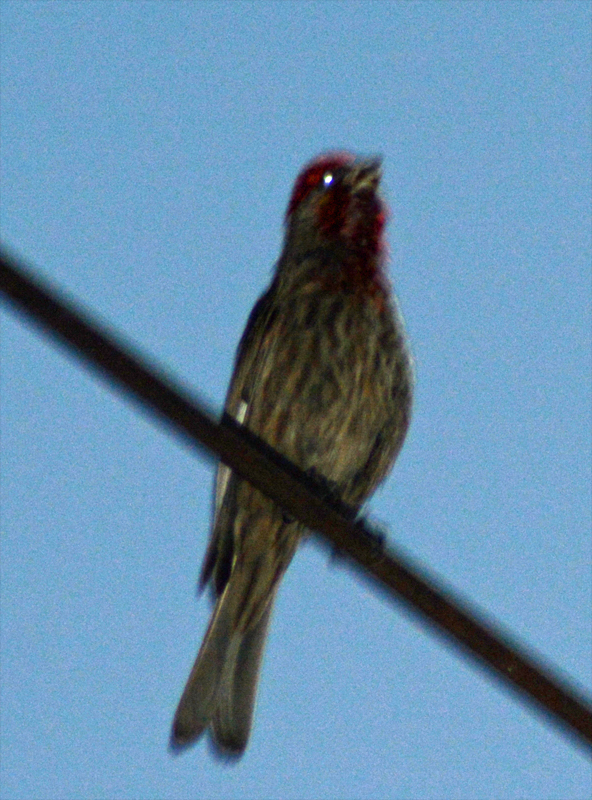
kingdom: Animalia
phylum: Chordata
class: Aves
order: Passeriformes
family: Fringillidae
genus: Haemorhous
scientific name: Haemorhous mexicanus
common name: House finch
